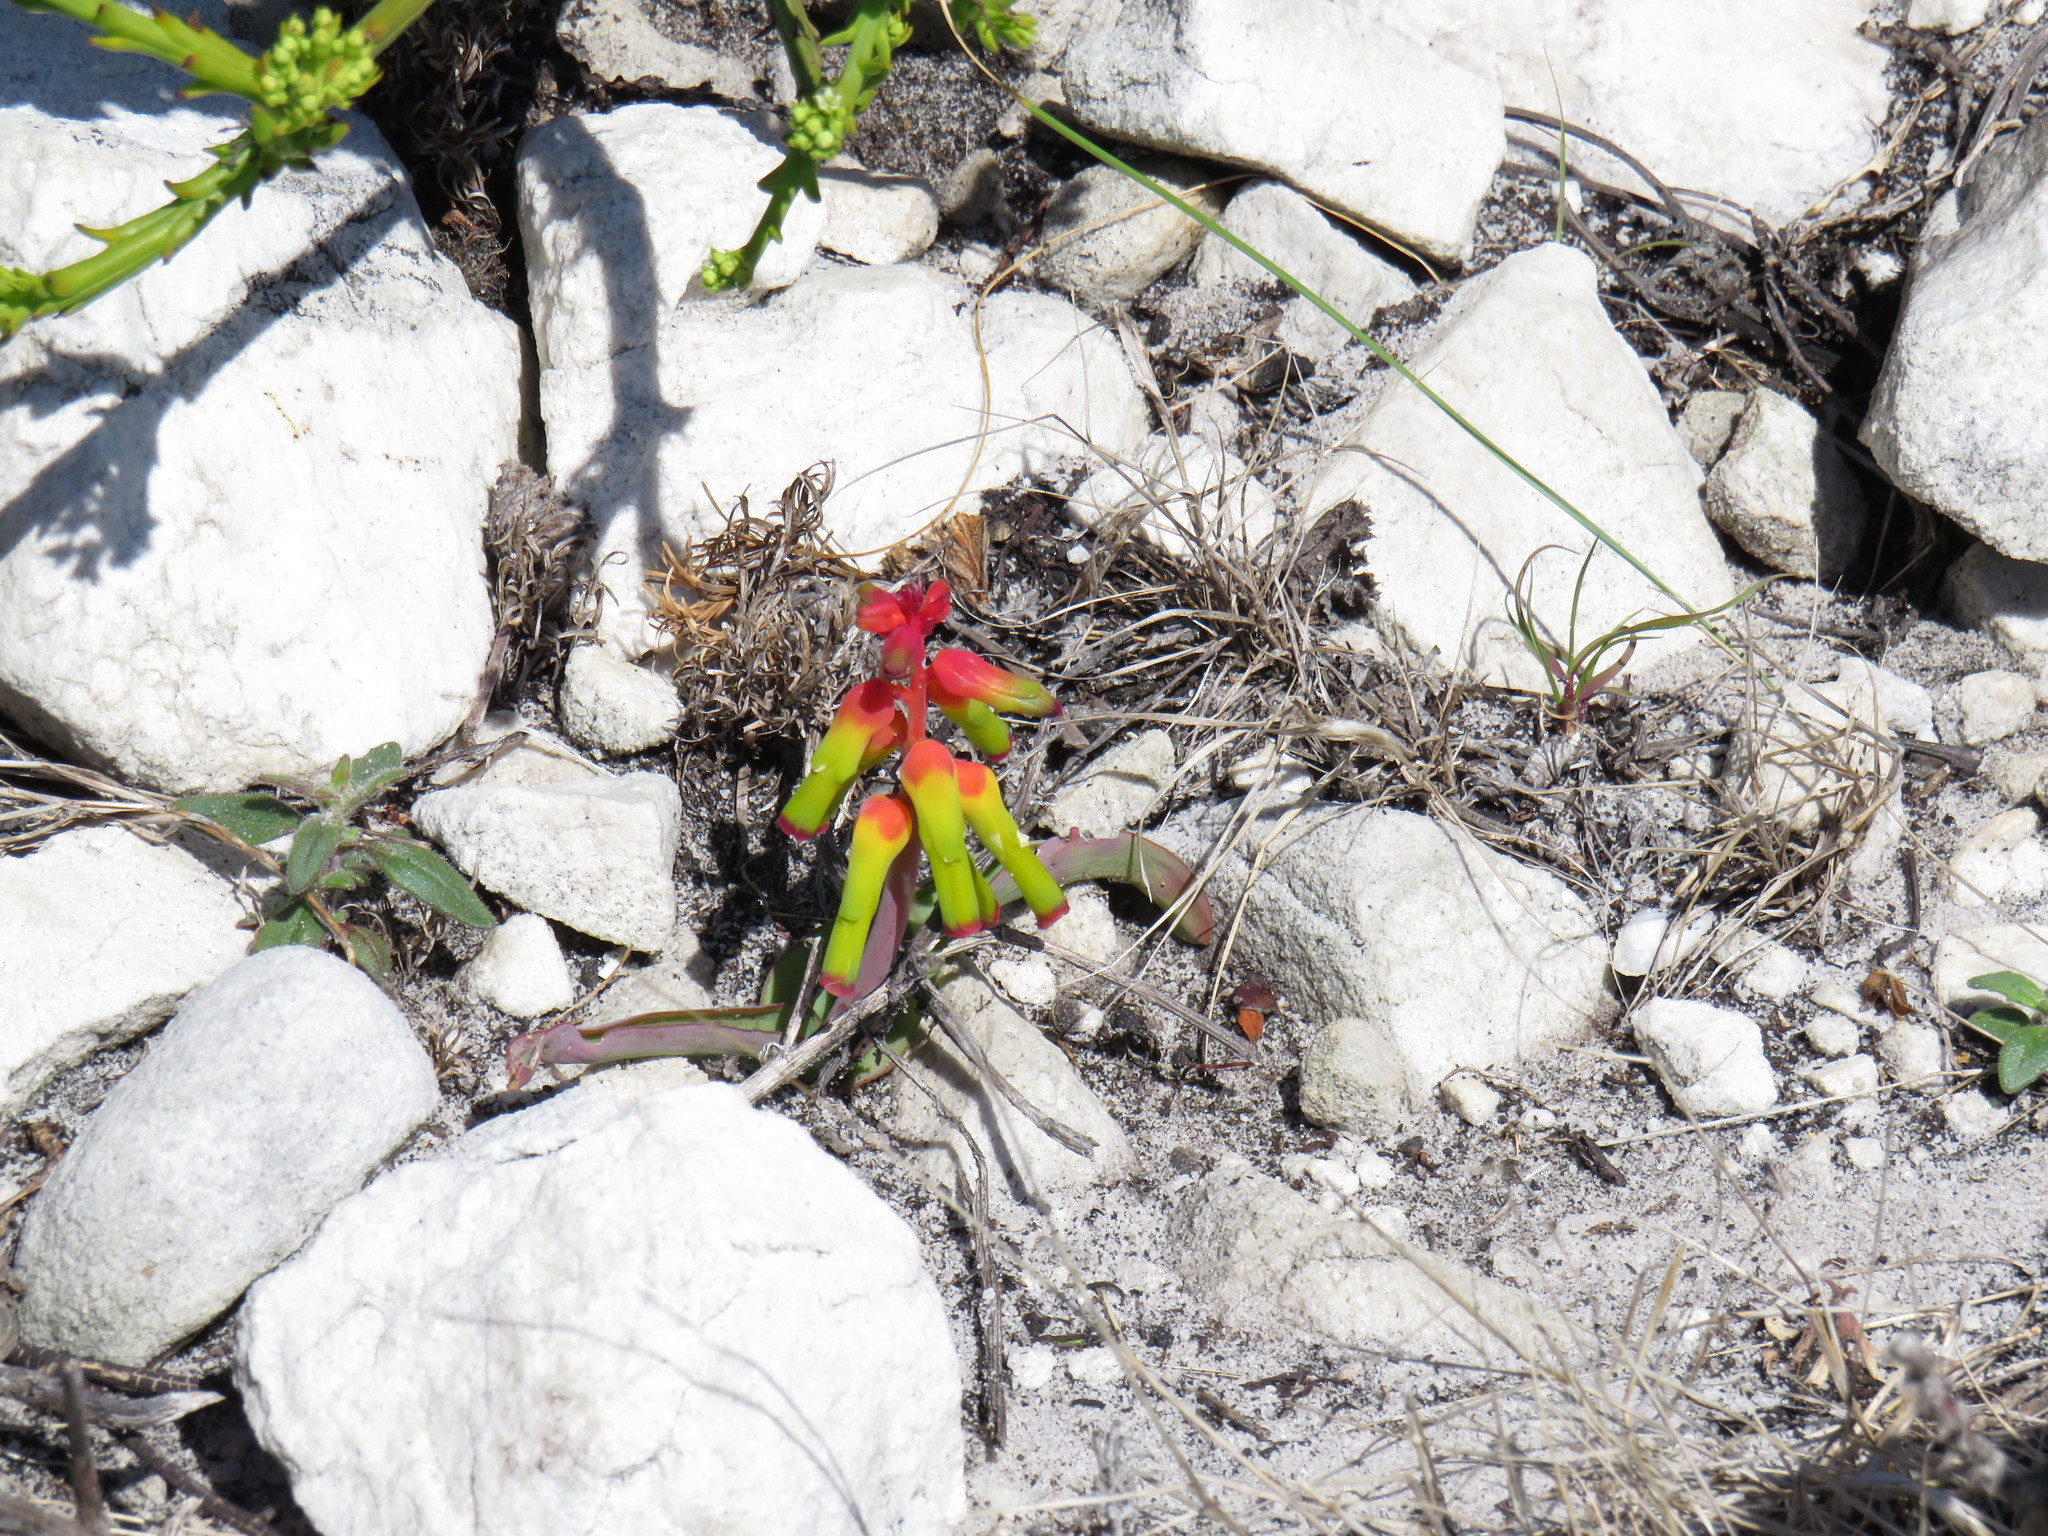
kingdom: Plantae
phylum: Tracheophyta
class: Liliopsida
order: Asparagales
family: Asparagaceae
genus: Lachenalia
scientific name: Lachenalia luteola
